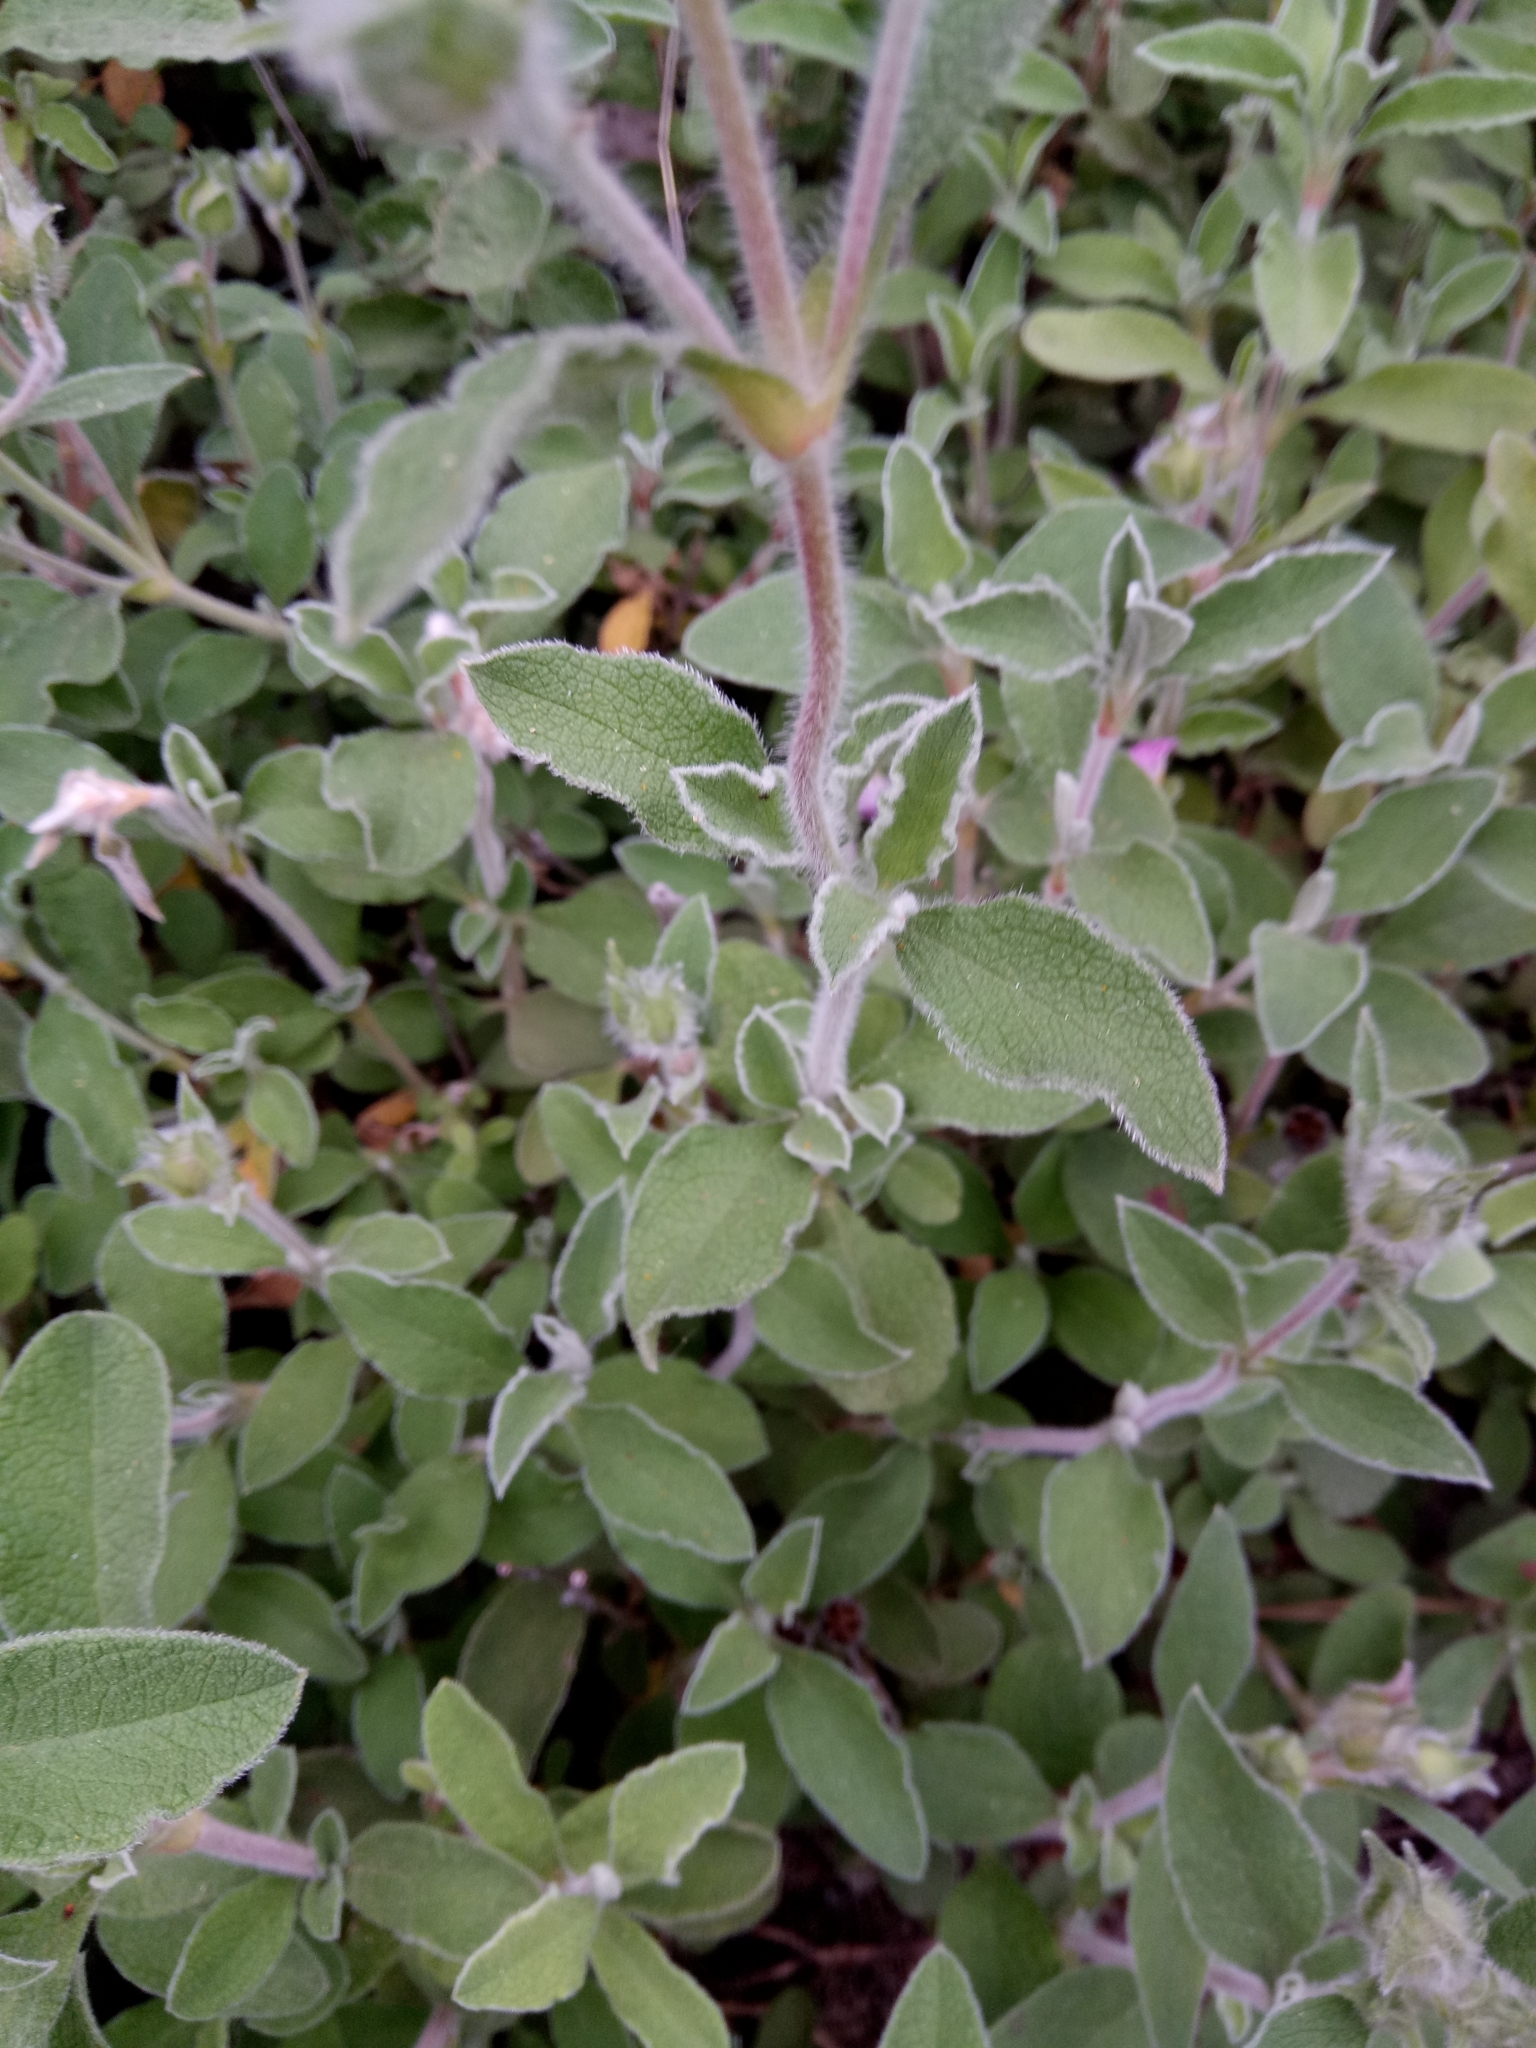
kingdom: Plantae
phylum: Tracheophyta
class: Magnoliopsida
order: Malvales
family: Cistaceae
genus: Cistus
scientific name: Cistus creticus
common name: Cretan rockrose
